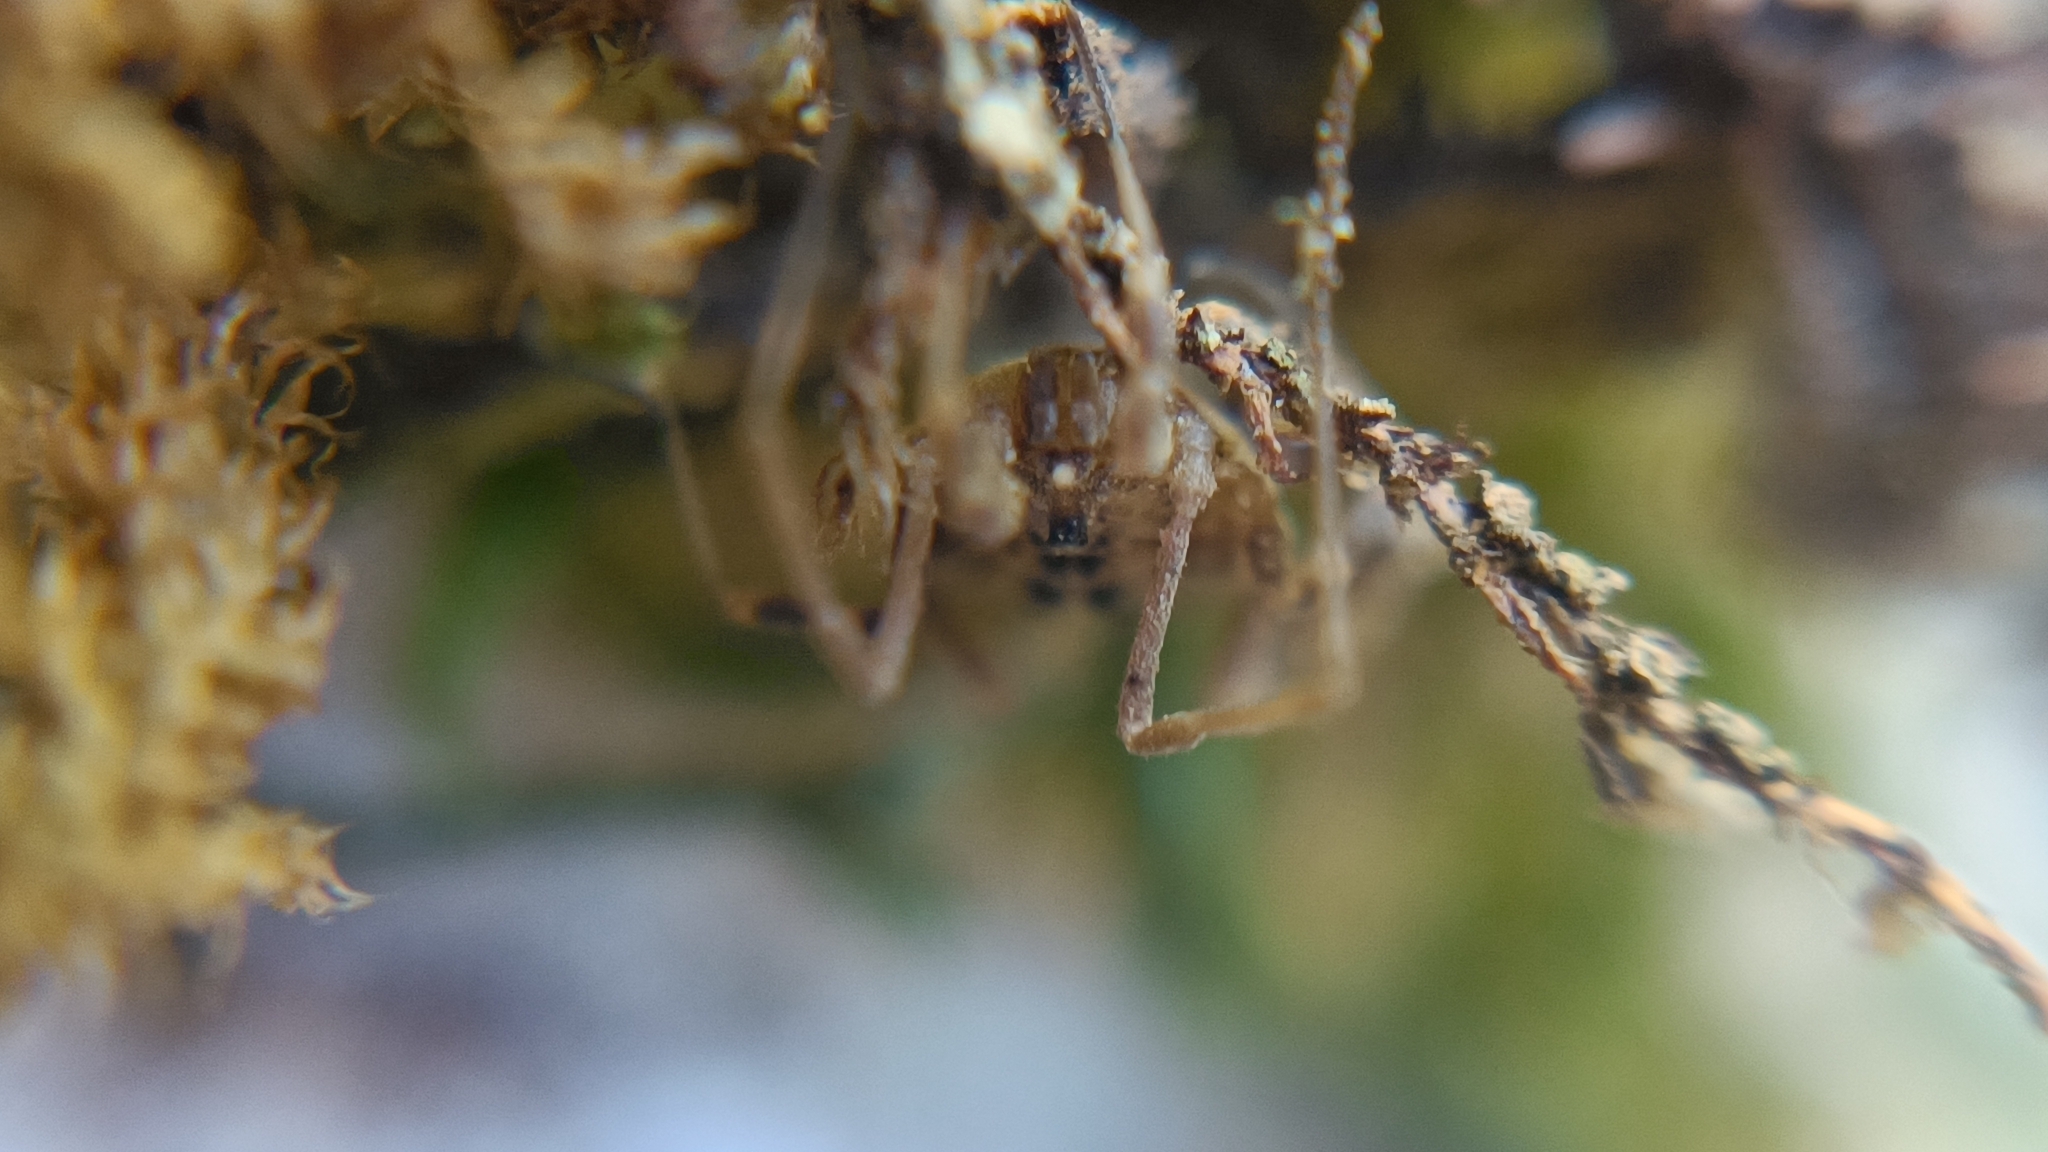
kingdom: Animalia
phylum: Arthropoda
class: Arachnida
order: Opiliones
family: Sclerosomatidae
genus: Homalenotus
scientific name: Homalenotus quadridentatus
